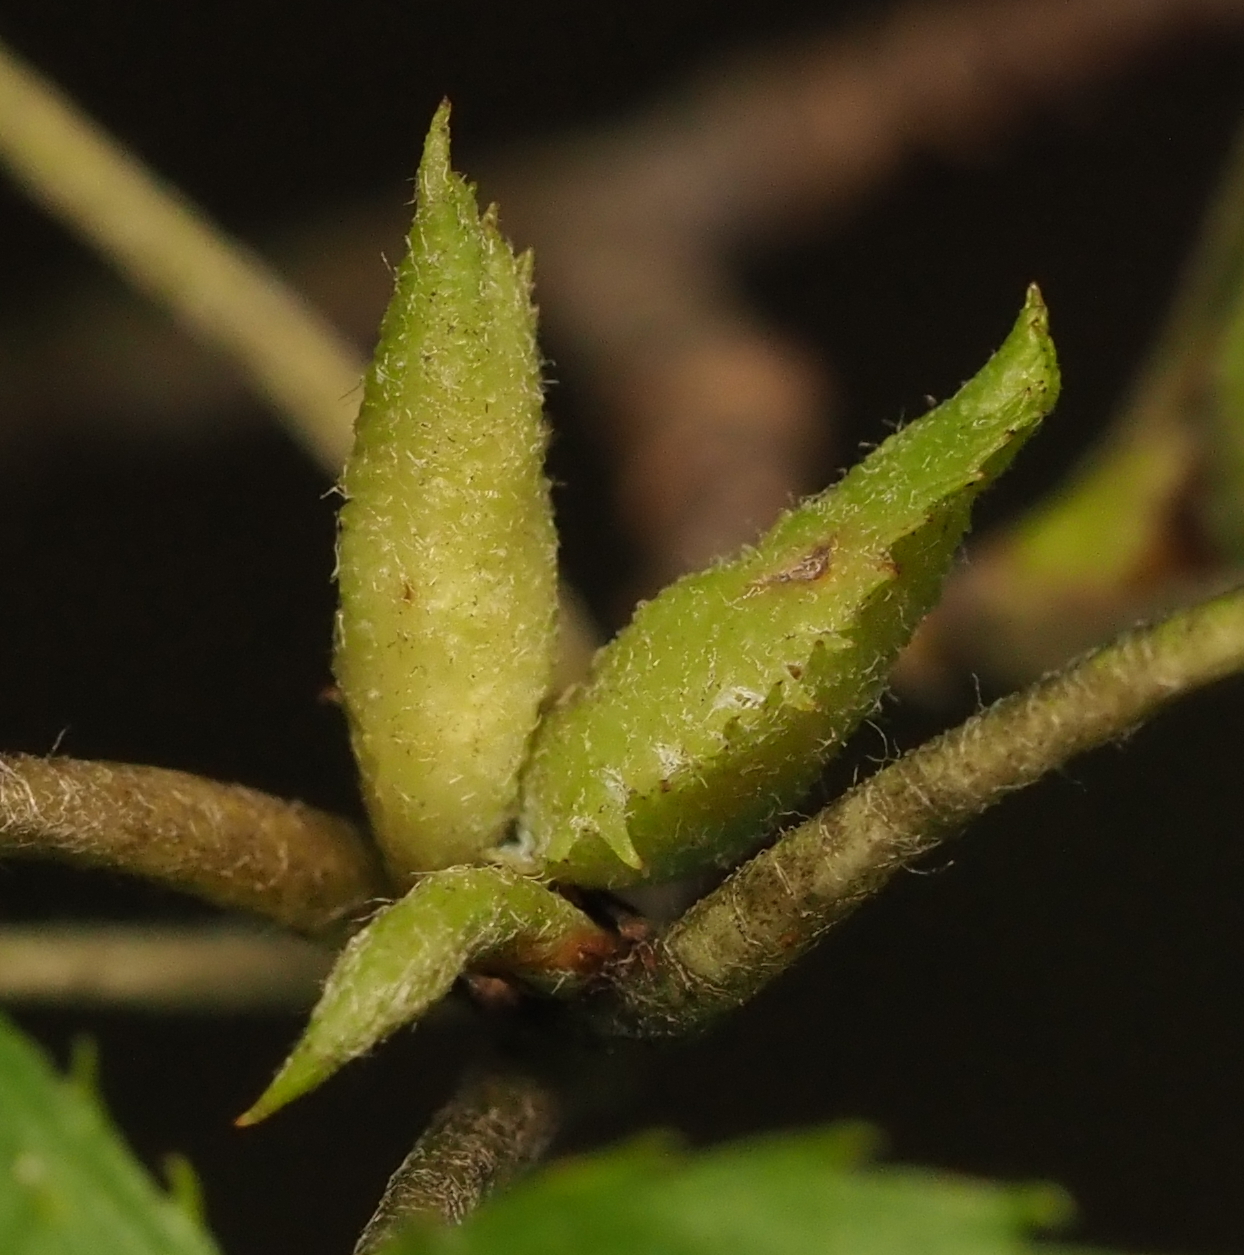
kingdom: Animalia
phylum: Arthropoda
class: Insecta
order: Hemiptera
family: Triozidae
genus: Trioza
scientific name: Trioza aylmeriae
